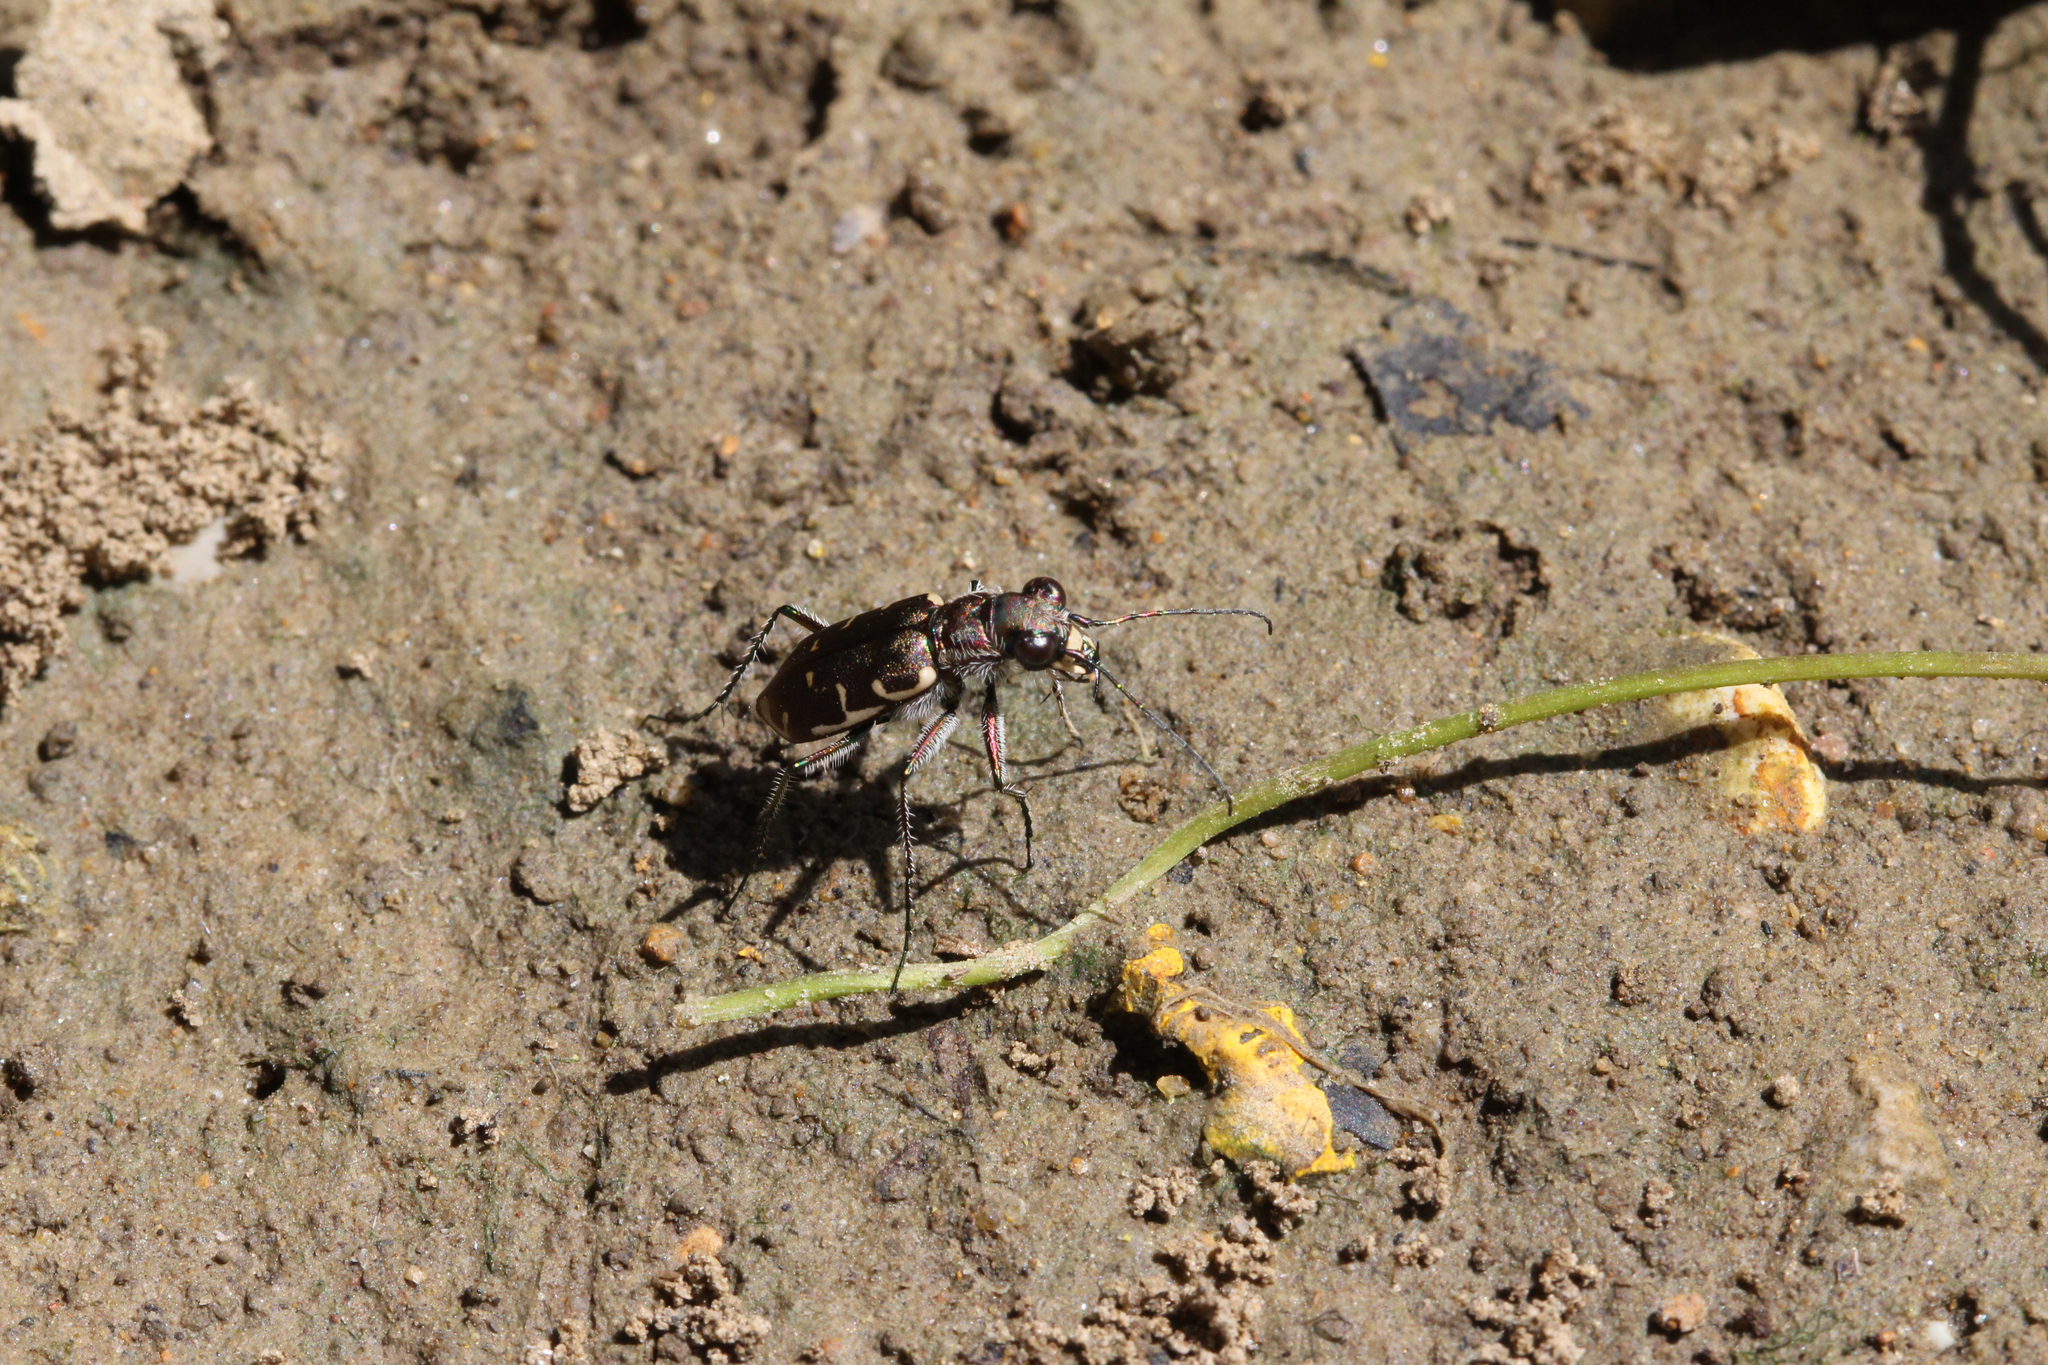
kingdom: Animalia
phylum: Arthropoda
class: Insecta
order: Coleoptera
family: Carabidae
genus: Cicindela
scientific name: Cicindela repanda
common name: Bronzed tiger beetle
